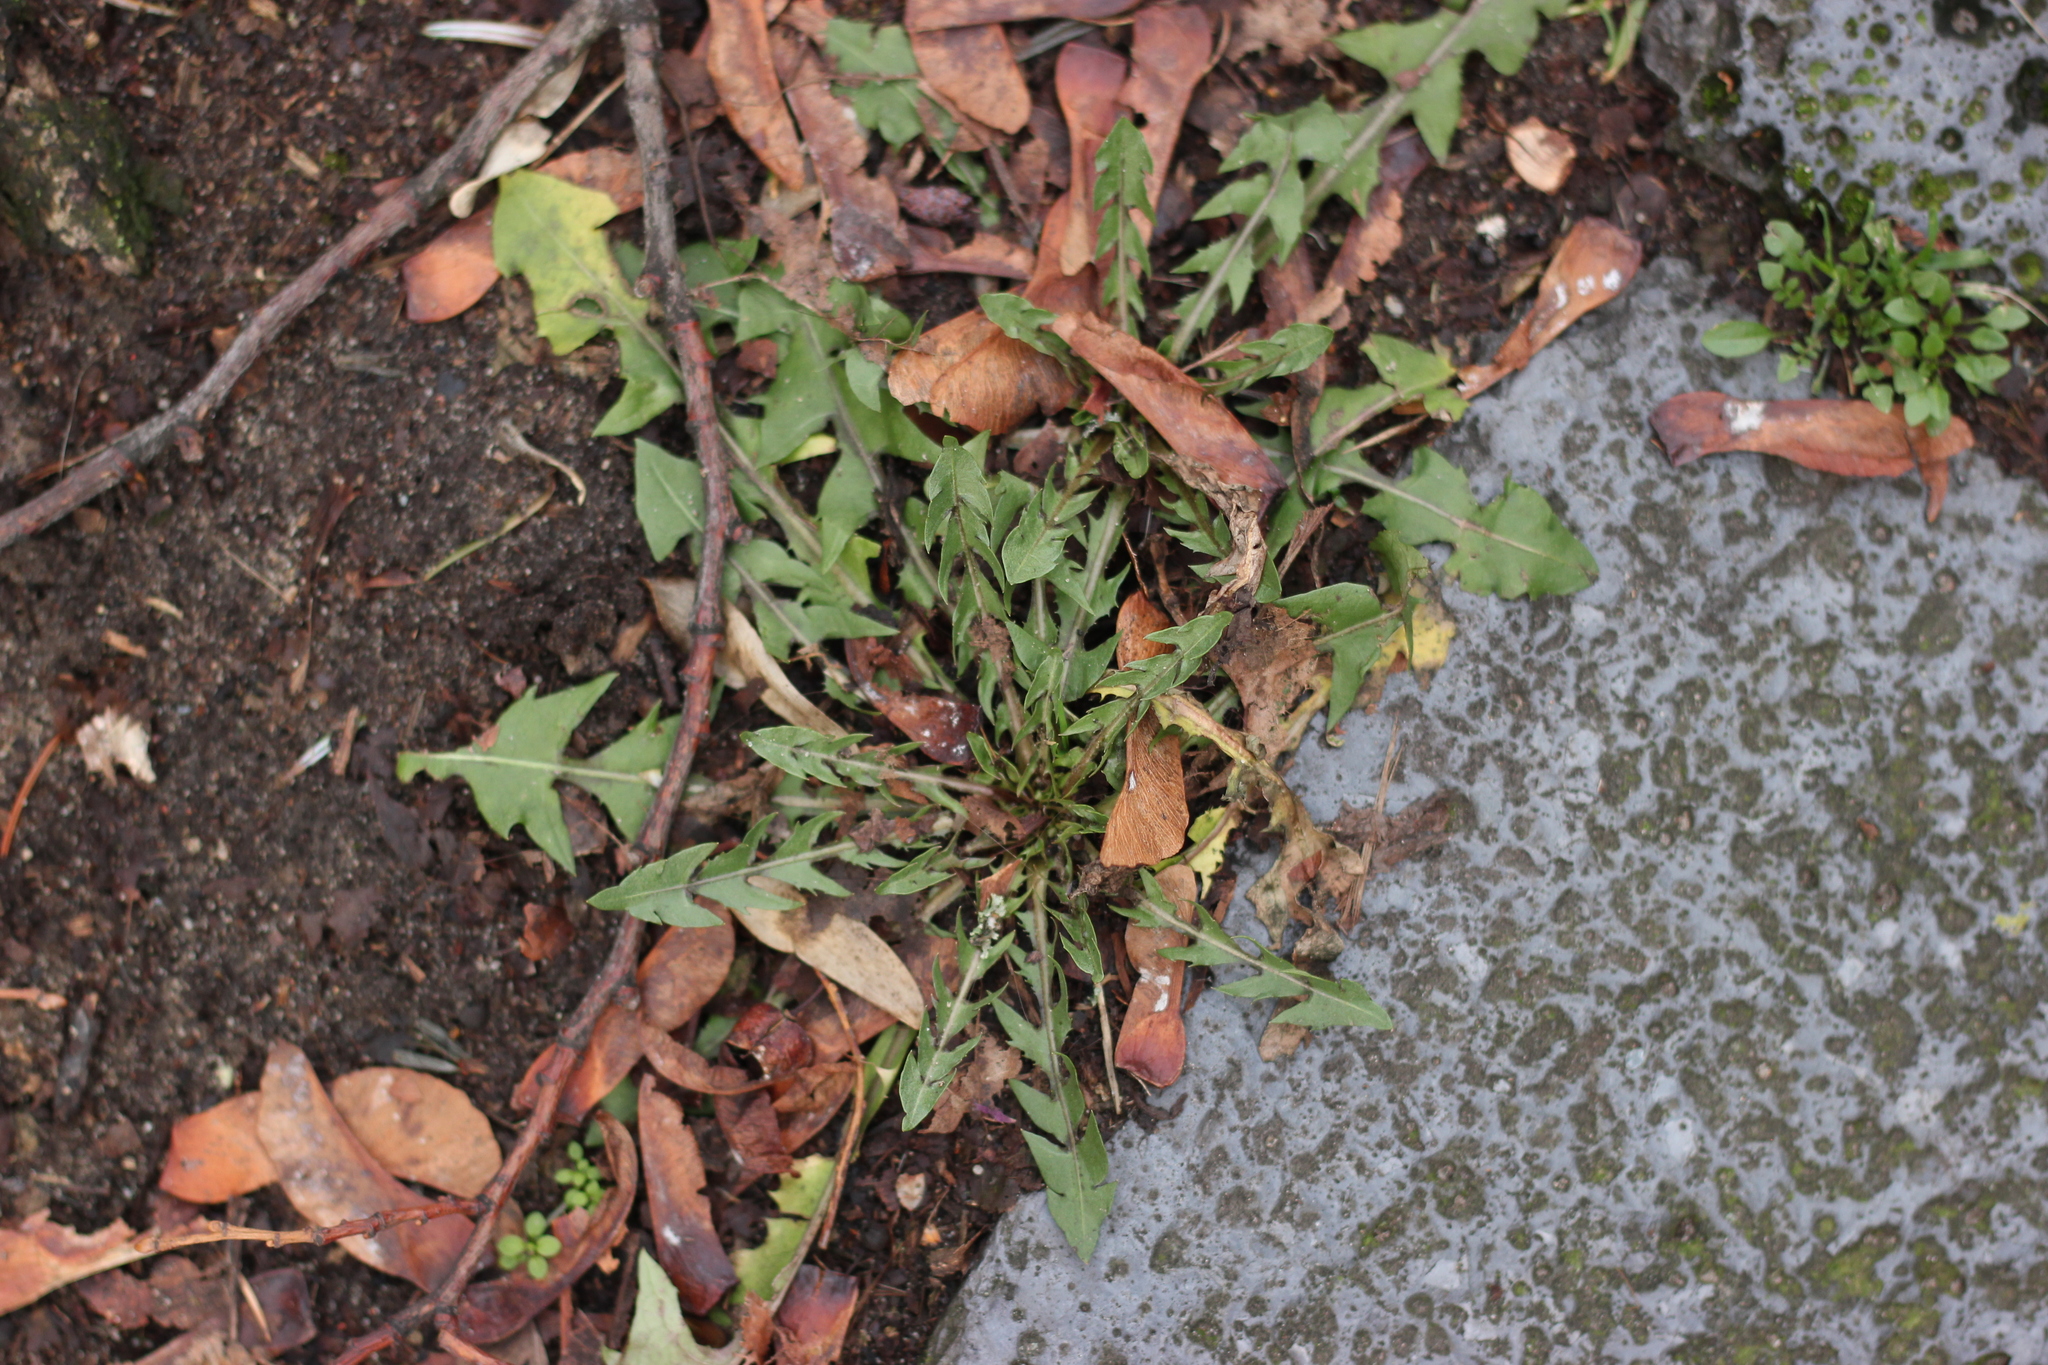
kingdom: Plantae
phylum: Tracheophyta
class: Magnoliopsida
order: Asterales
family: Asteraceae
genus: Taraxacum
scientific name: Taraxacum officinale
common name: Common dandelion
